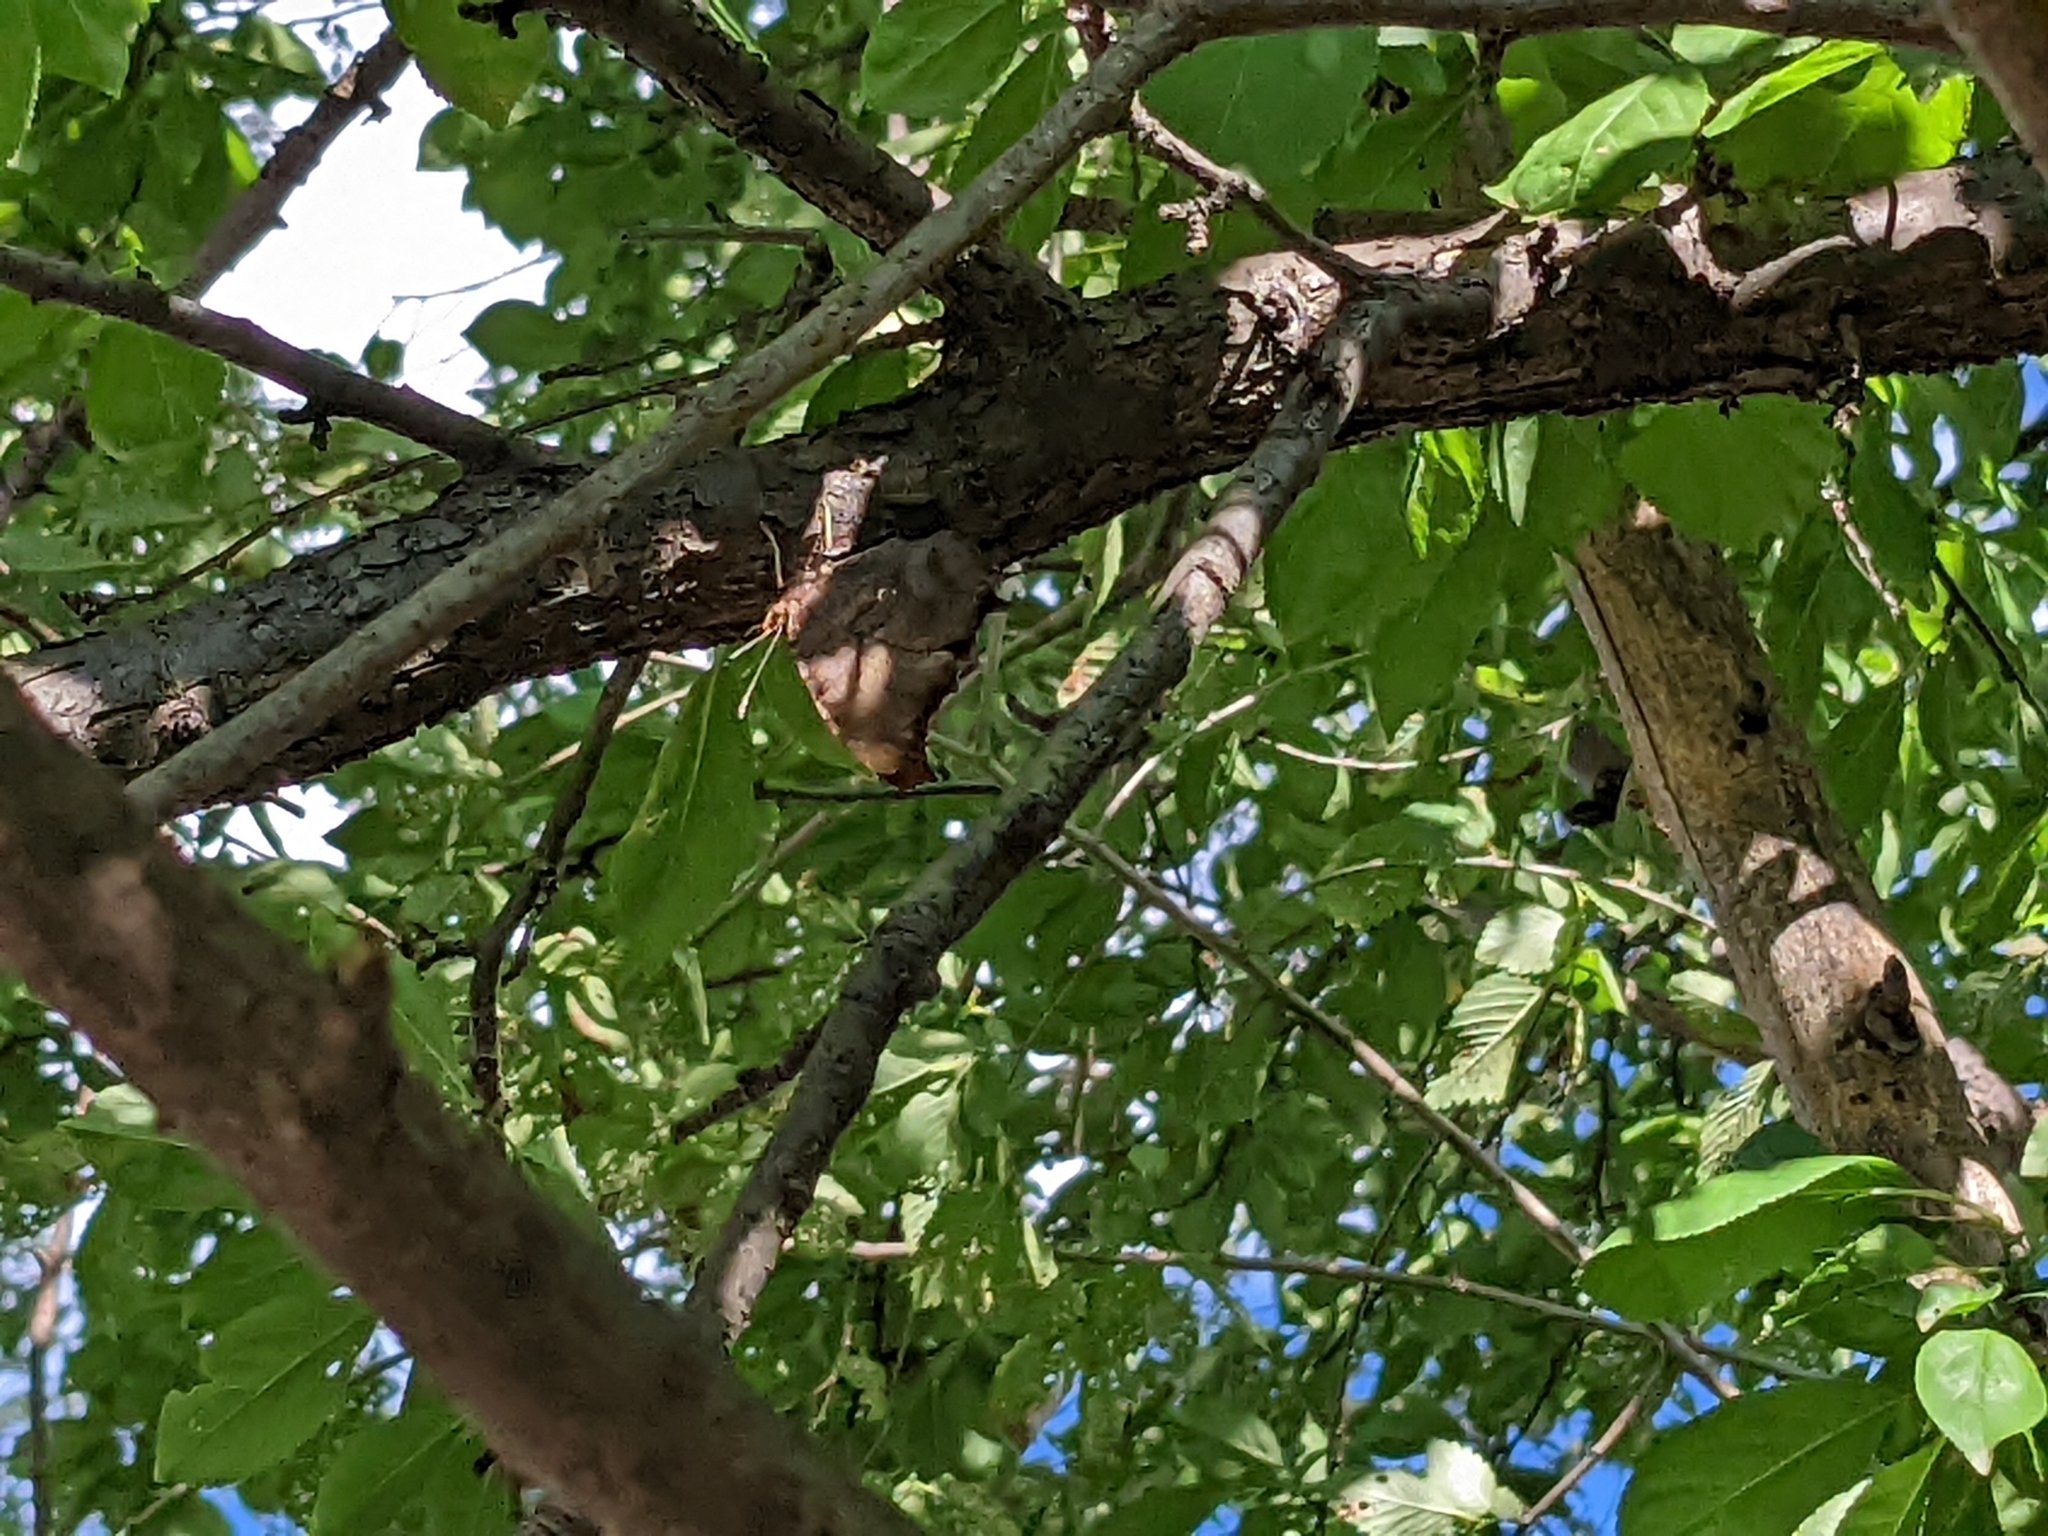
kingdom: Animalia
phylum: Arthropoda
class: Insecta
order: Lepidoptera
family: Nymphalidae
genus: Polygonia
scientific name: Polygonia interrogationis
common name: Question mark
